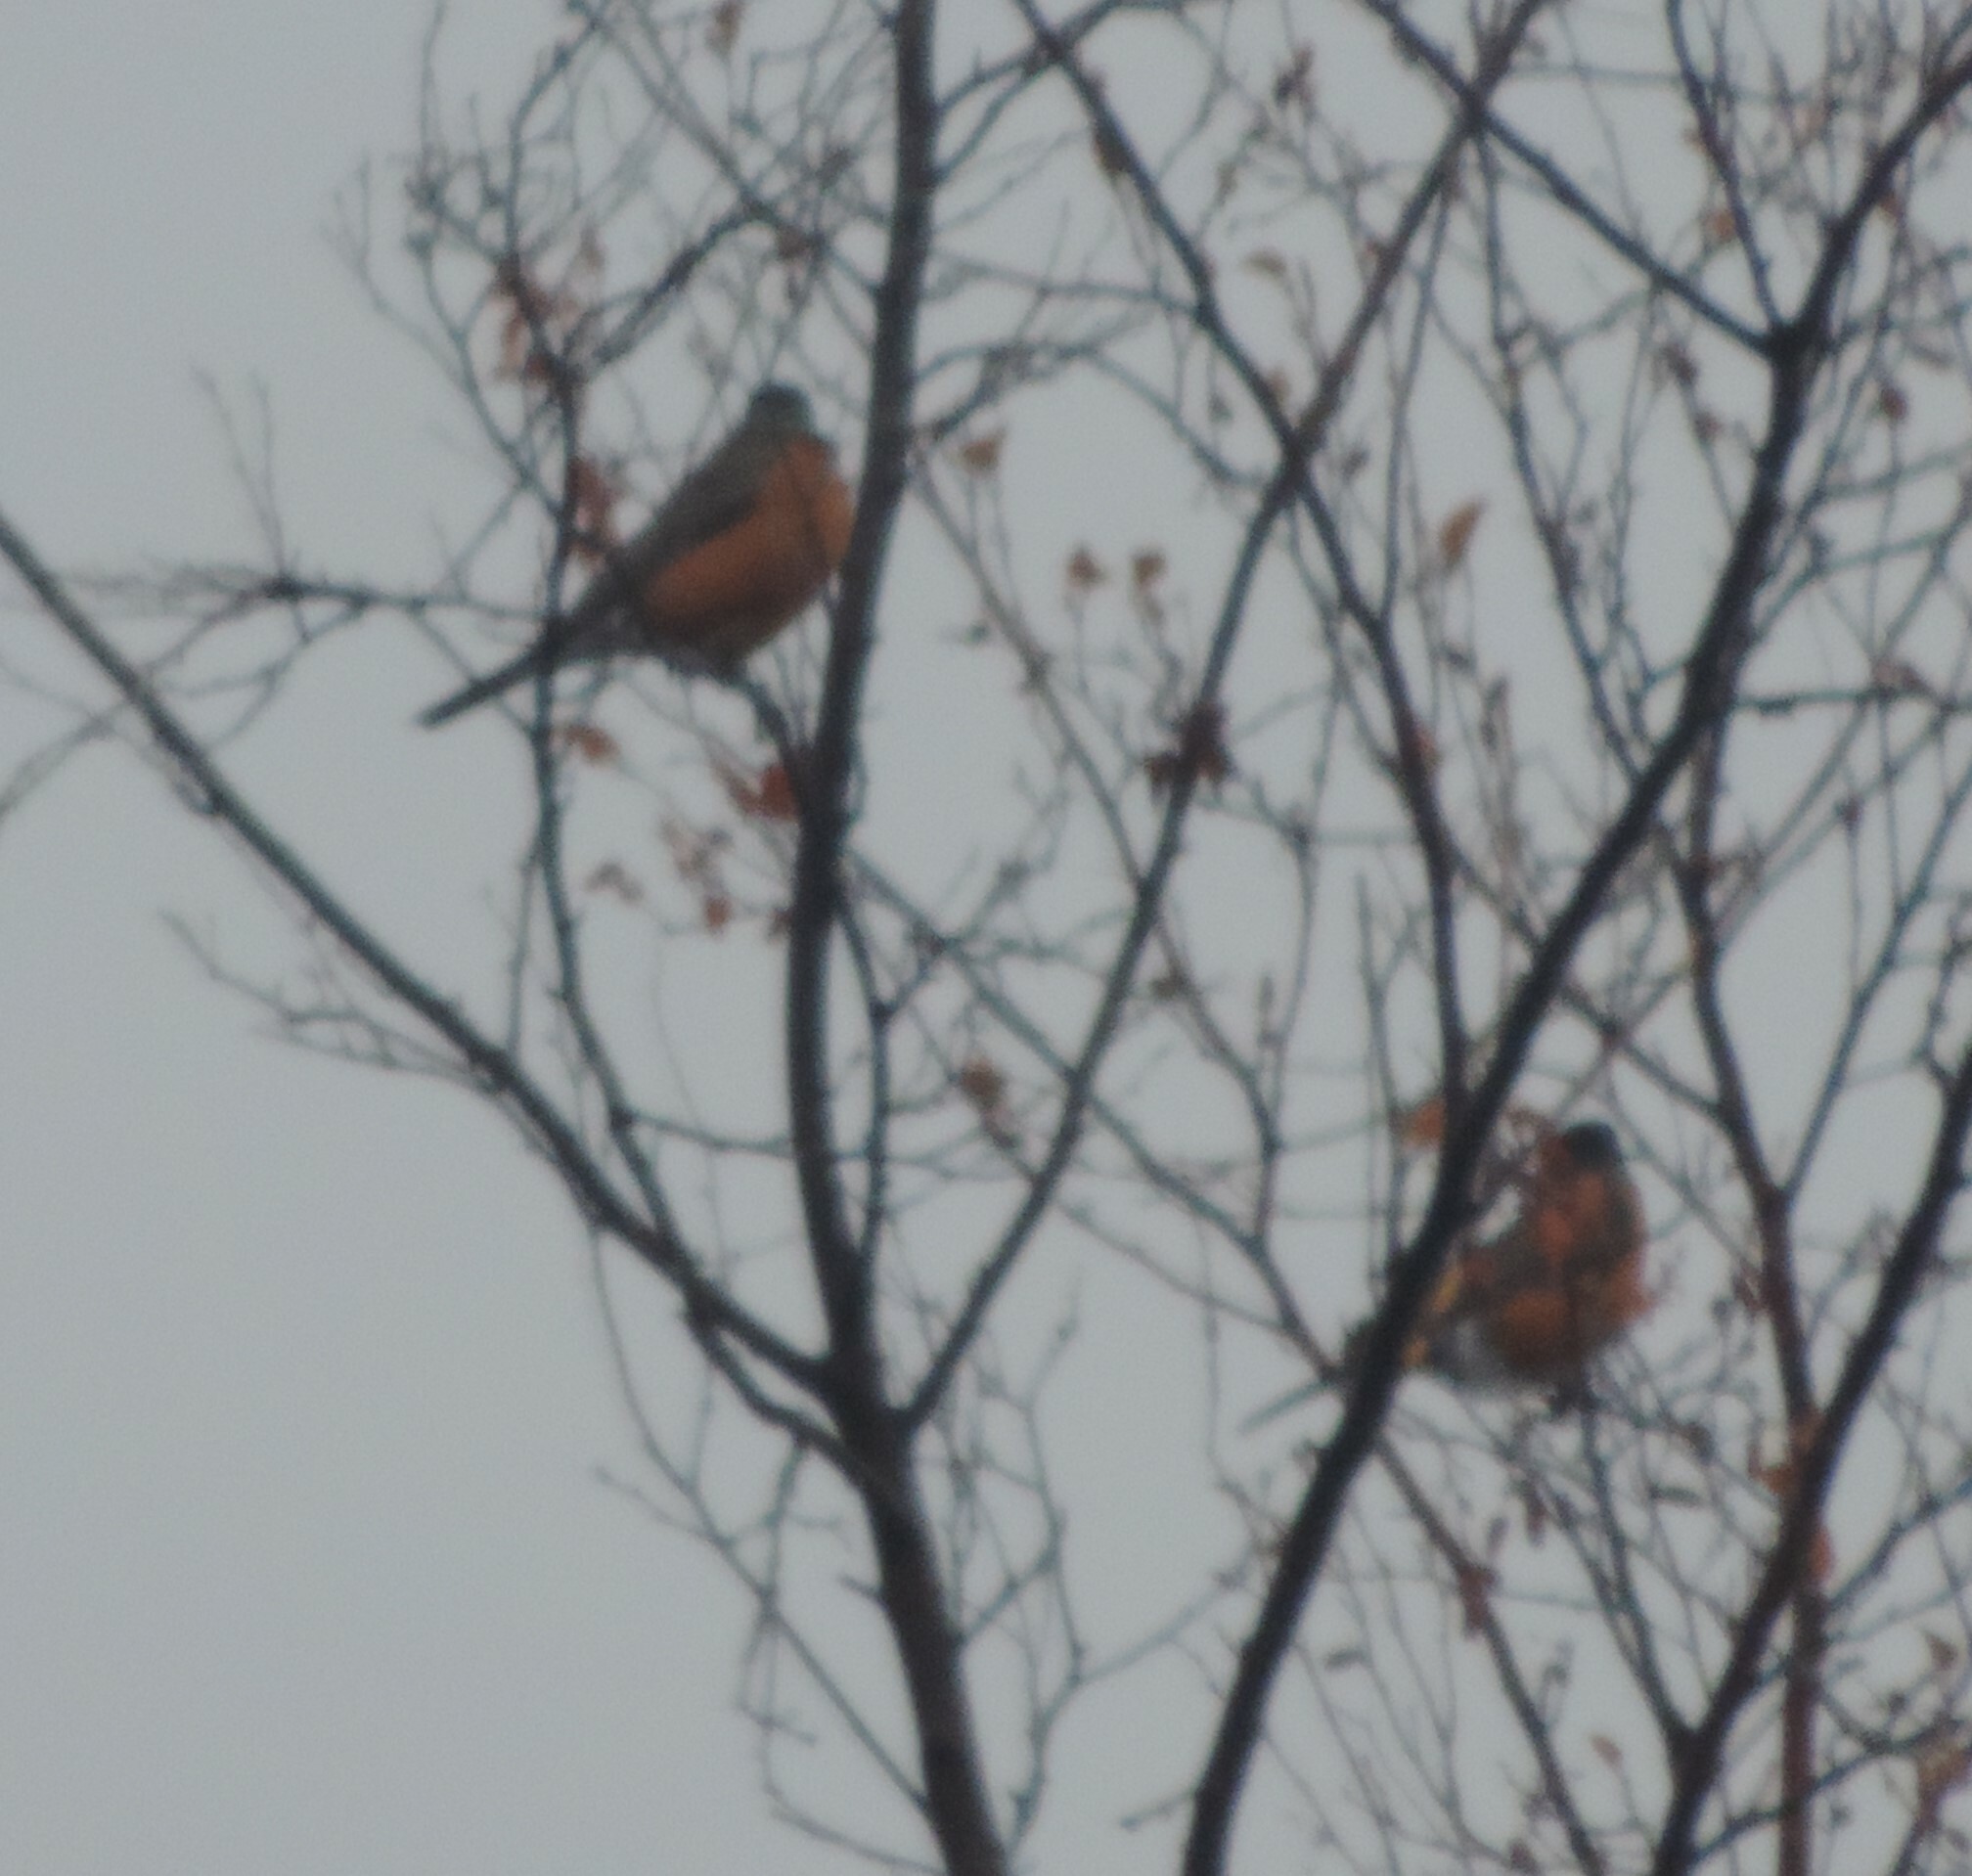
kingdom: Animalia
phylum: Chordata
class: Aves
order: Passeriformes
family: Turdidae
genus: Turdus
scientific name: Turdus migratorius
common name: American robin
